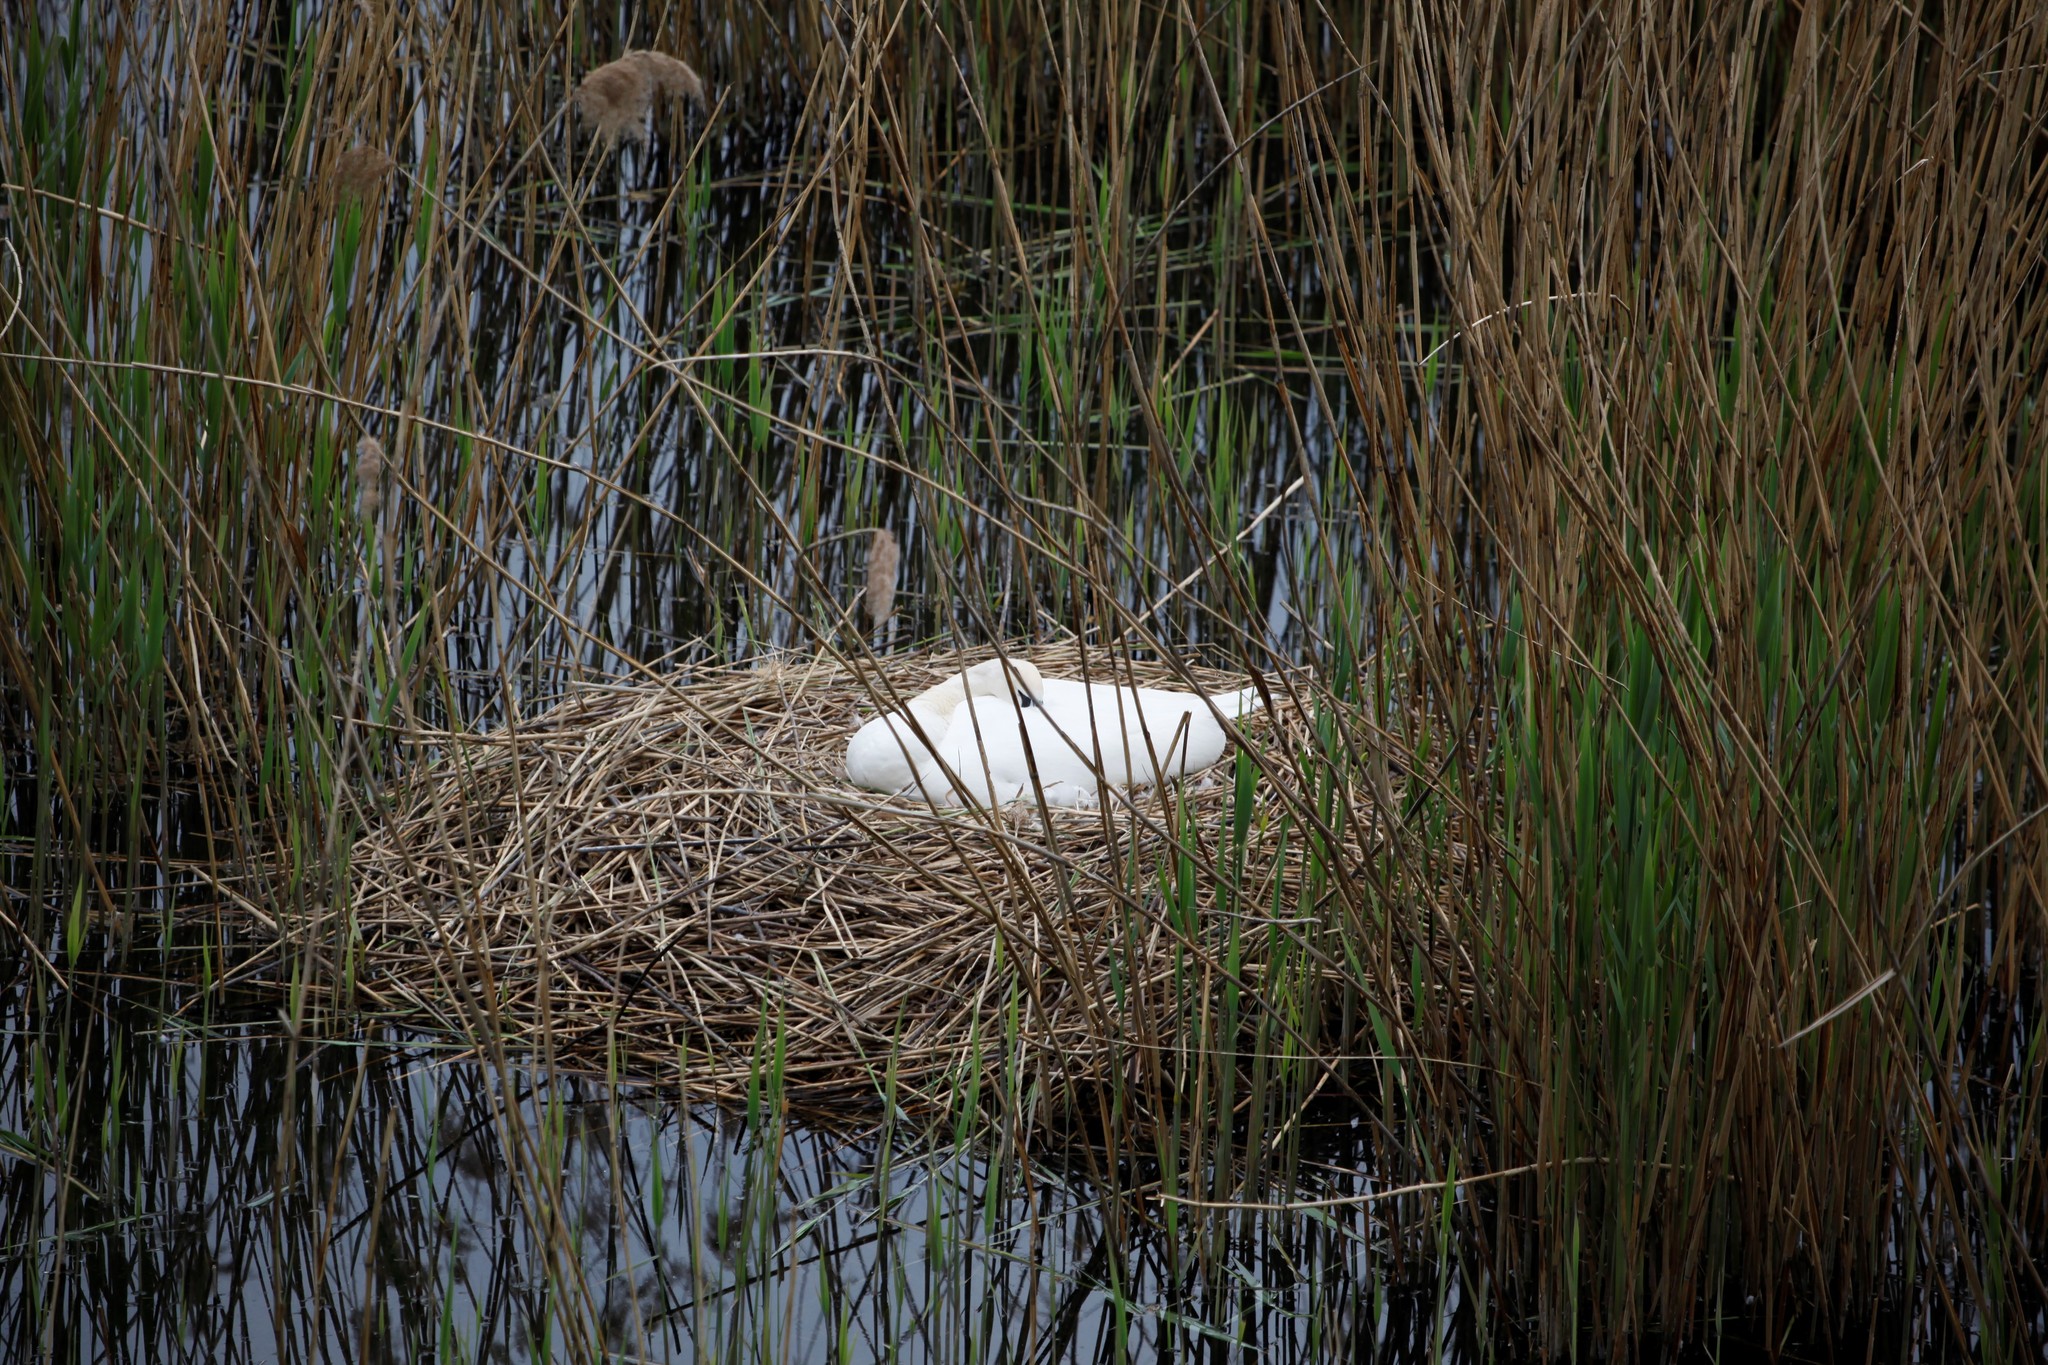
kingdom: Animalia
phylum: Chordata
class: Aves
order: Anseriformes
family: Anatidae
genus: Cygnus
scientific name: Cygnus olor
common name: Mute swan
